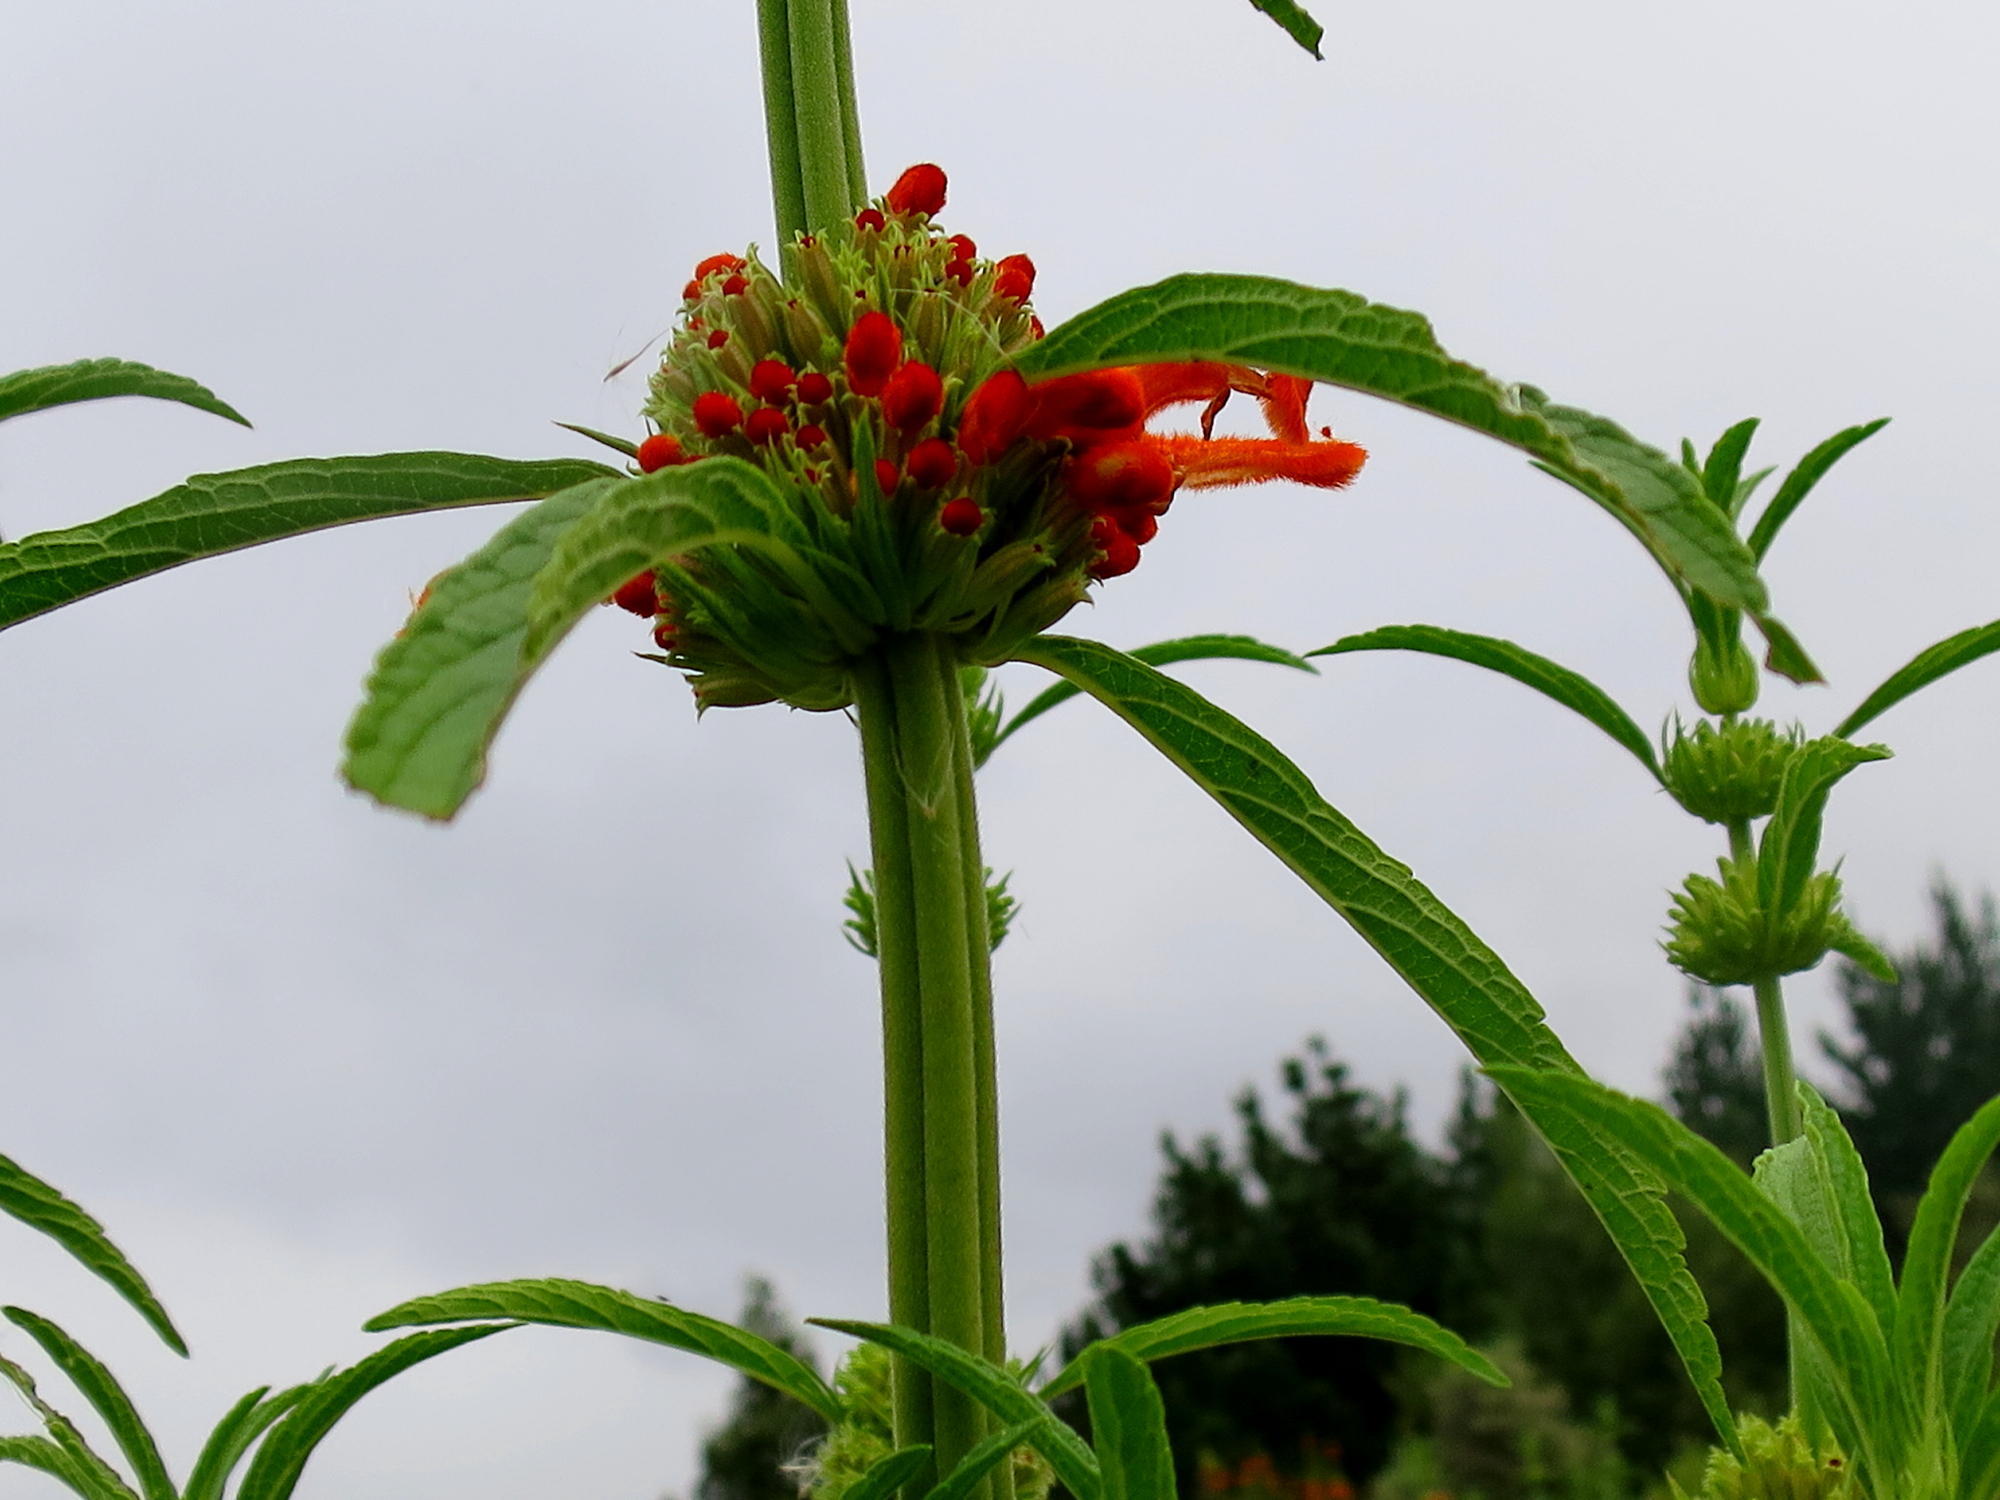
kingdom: Plantae
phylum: Tracheophyta
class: Magnoliopsida
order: Lamiales
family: Lamiaceae
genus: Leonotis
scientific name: Leonotis leonurus
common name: Lion's ear
